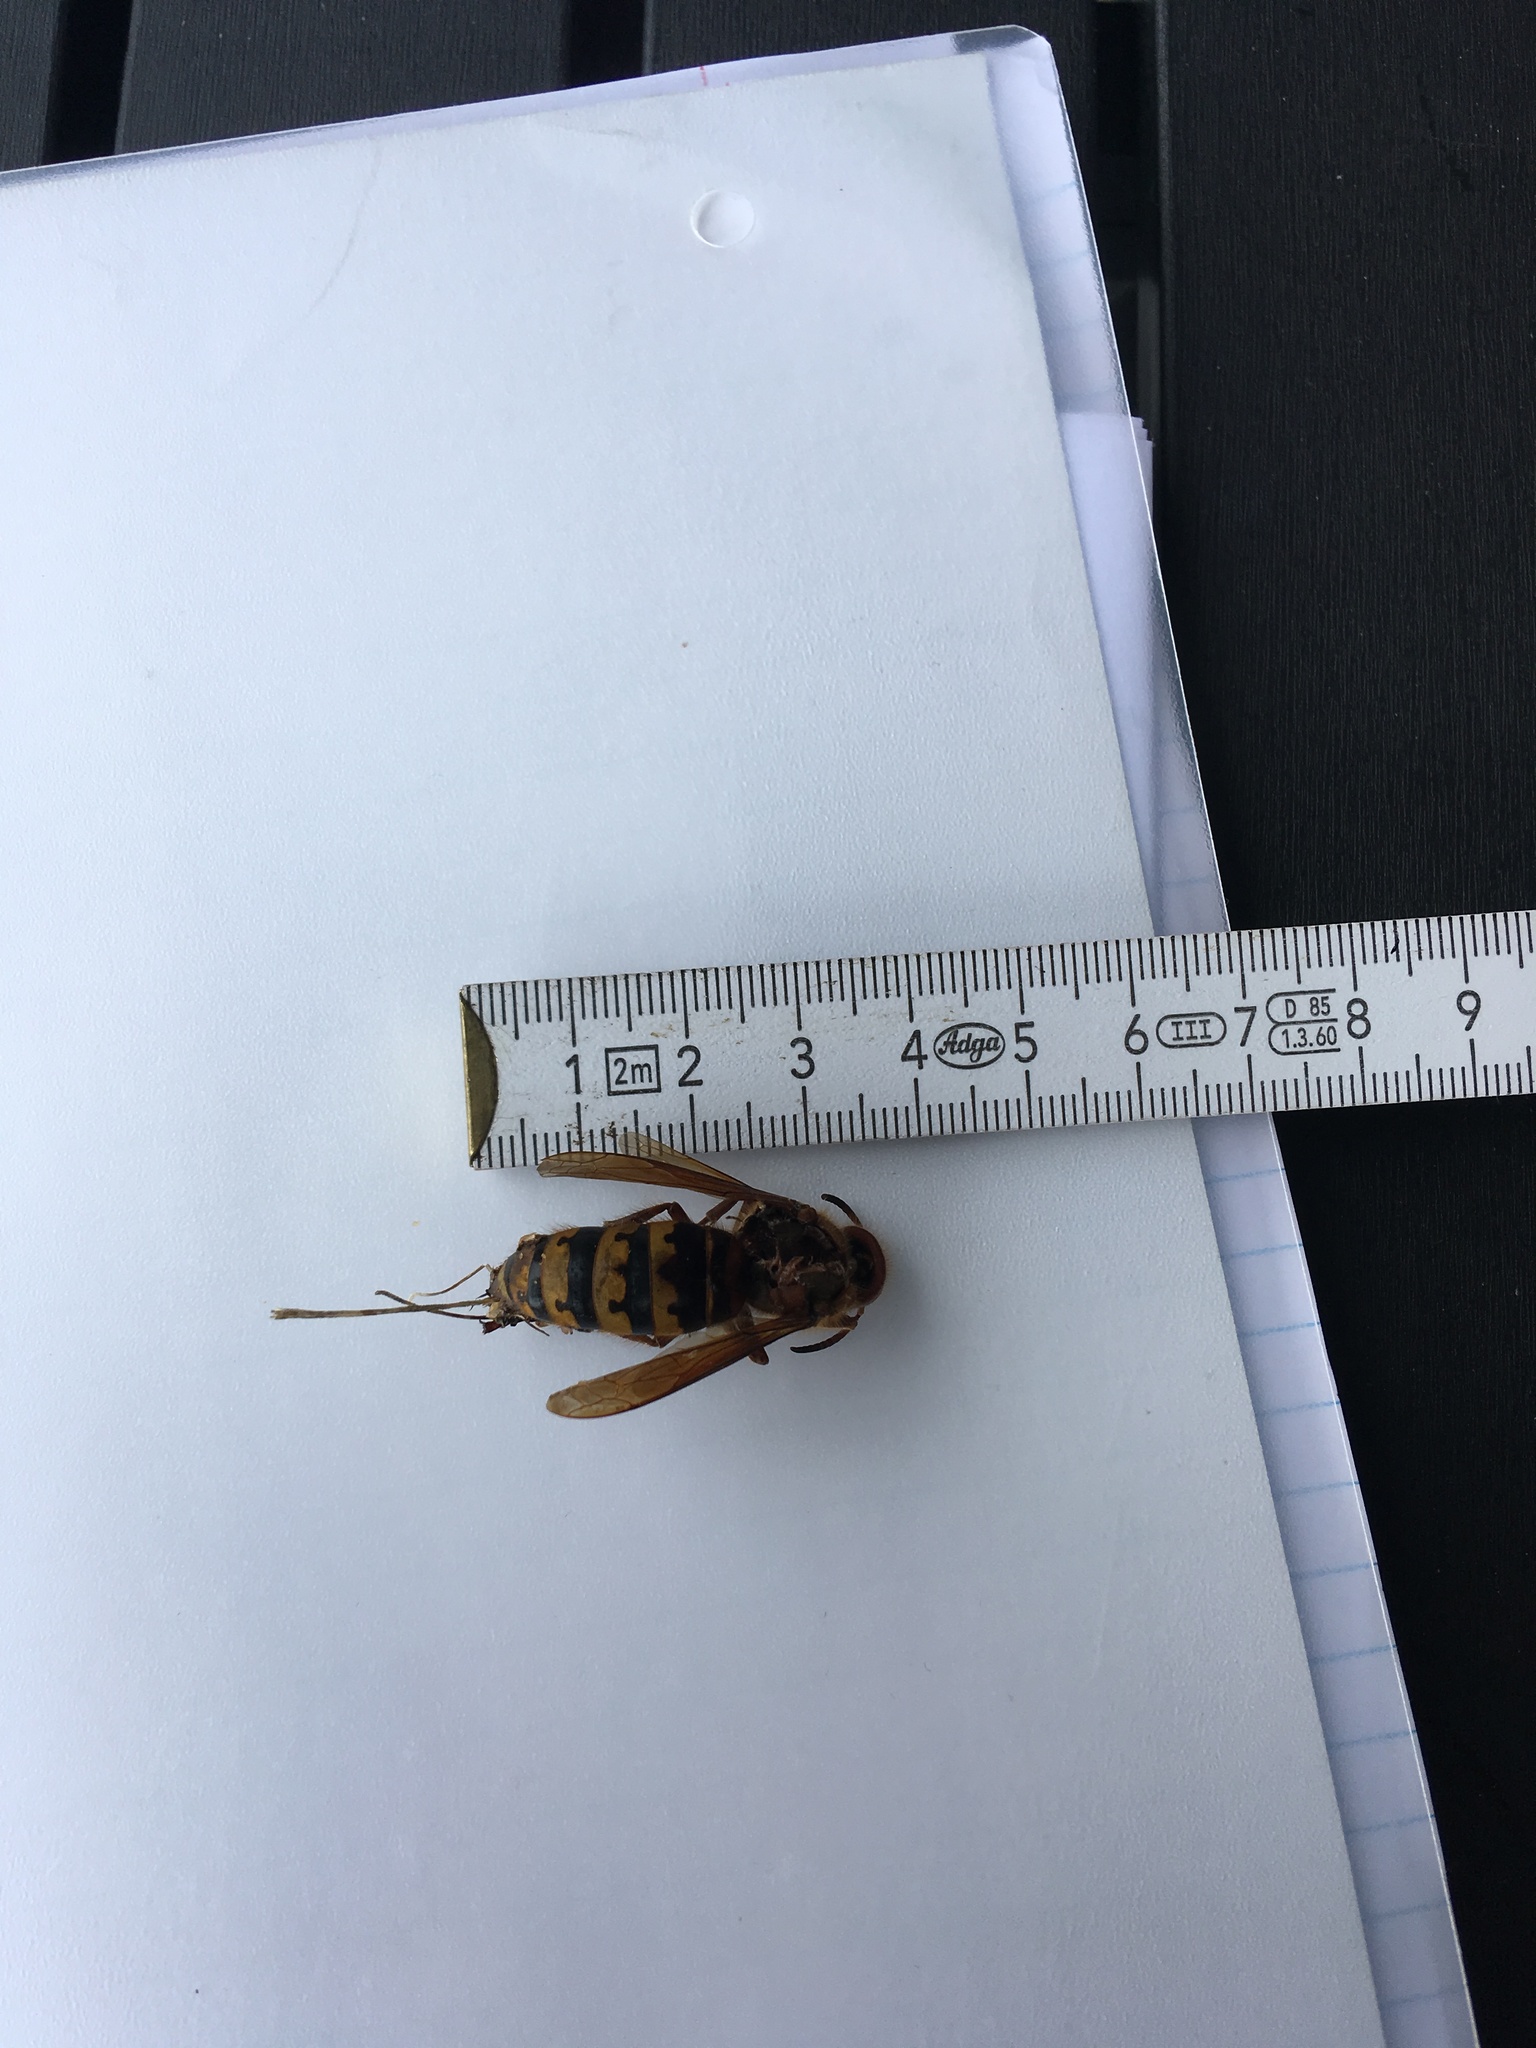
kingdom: Animalia
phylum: Arthropoda
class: Insecta
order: Hymenoptera
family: Vespidae
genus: Vespa
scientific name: Vespa crabro
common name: Hornet
